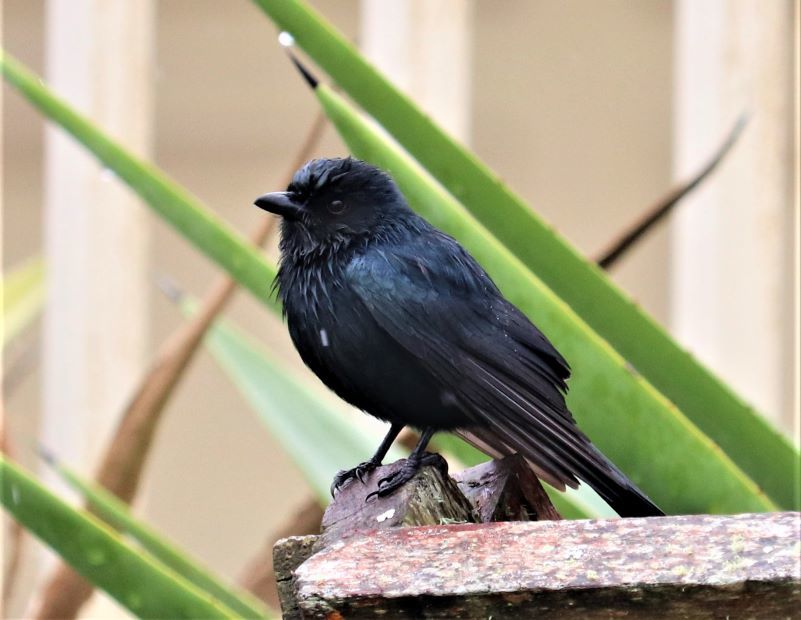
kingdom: Animalia
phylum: Chordata
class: Aves
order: Passeriformes
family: Dicruridae
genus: Dicrurus
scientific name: Dicrurus adsimilis
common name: Fork-tailed drongo
